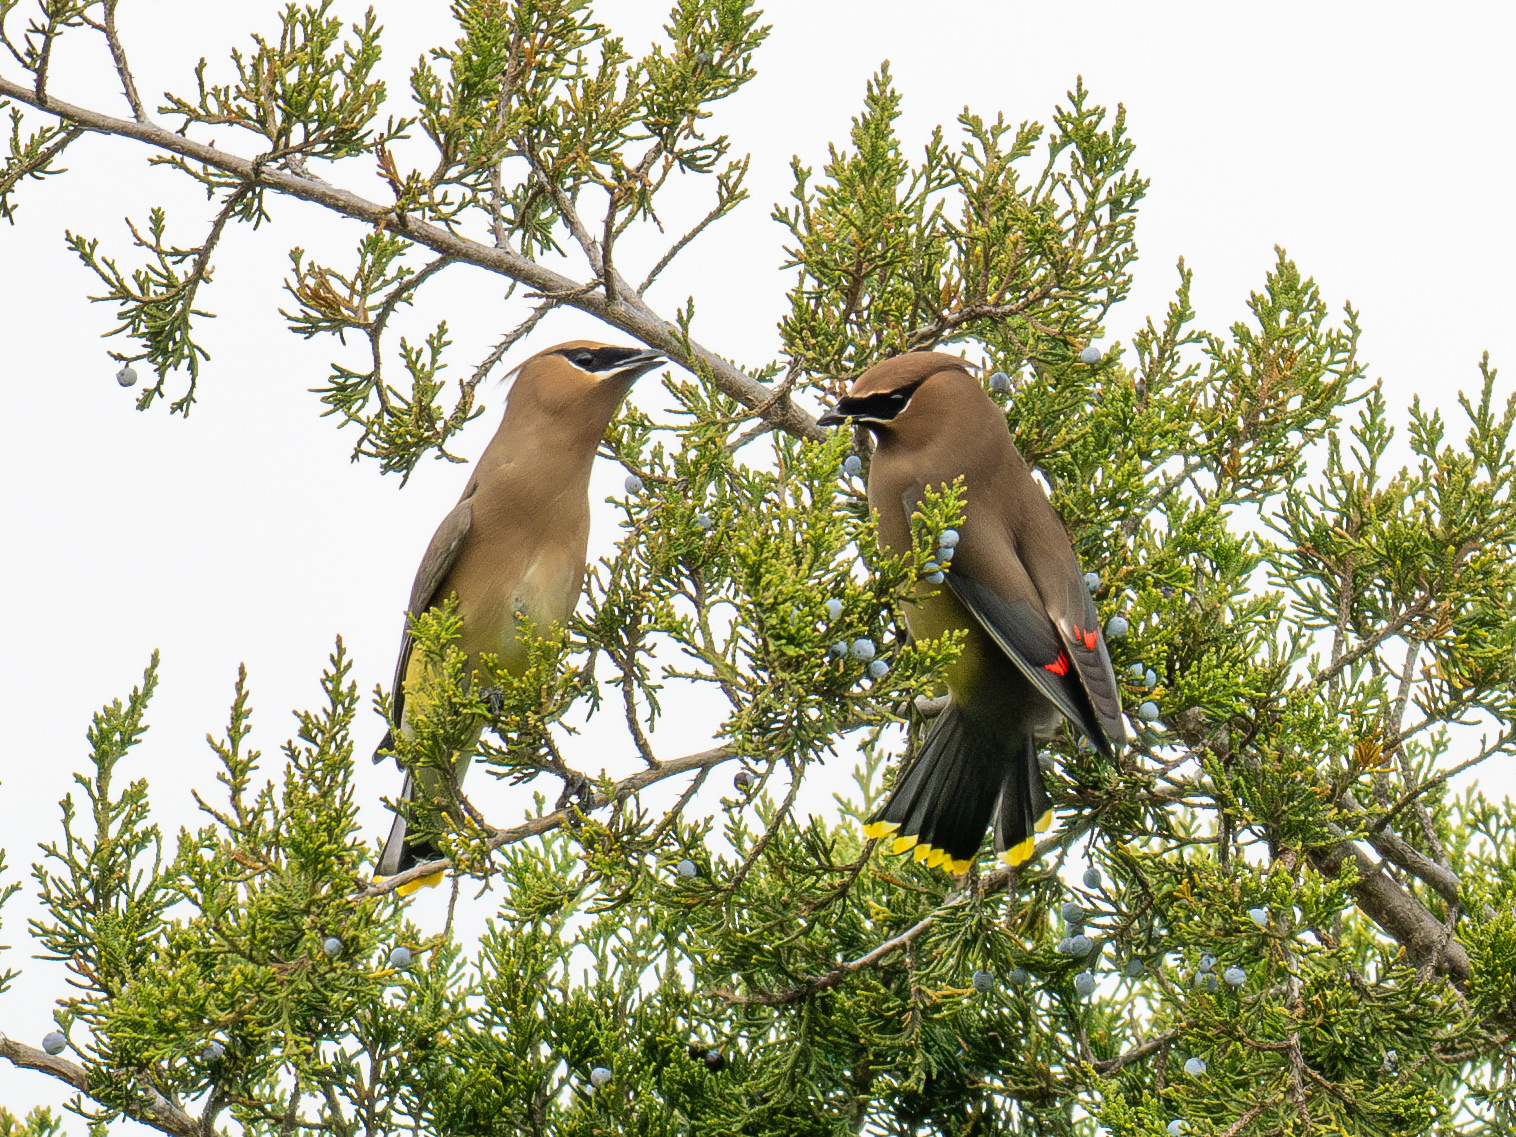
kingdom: Animalia
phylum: Chordata
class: Aves
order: Passeriformes
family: Bombycillidae
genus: Bombycilla
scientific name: Bombycilla cedrorum
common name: Cedar waxwing
